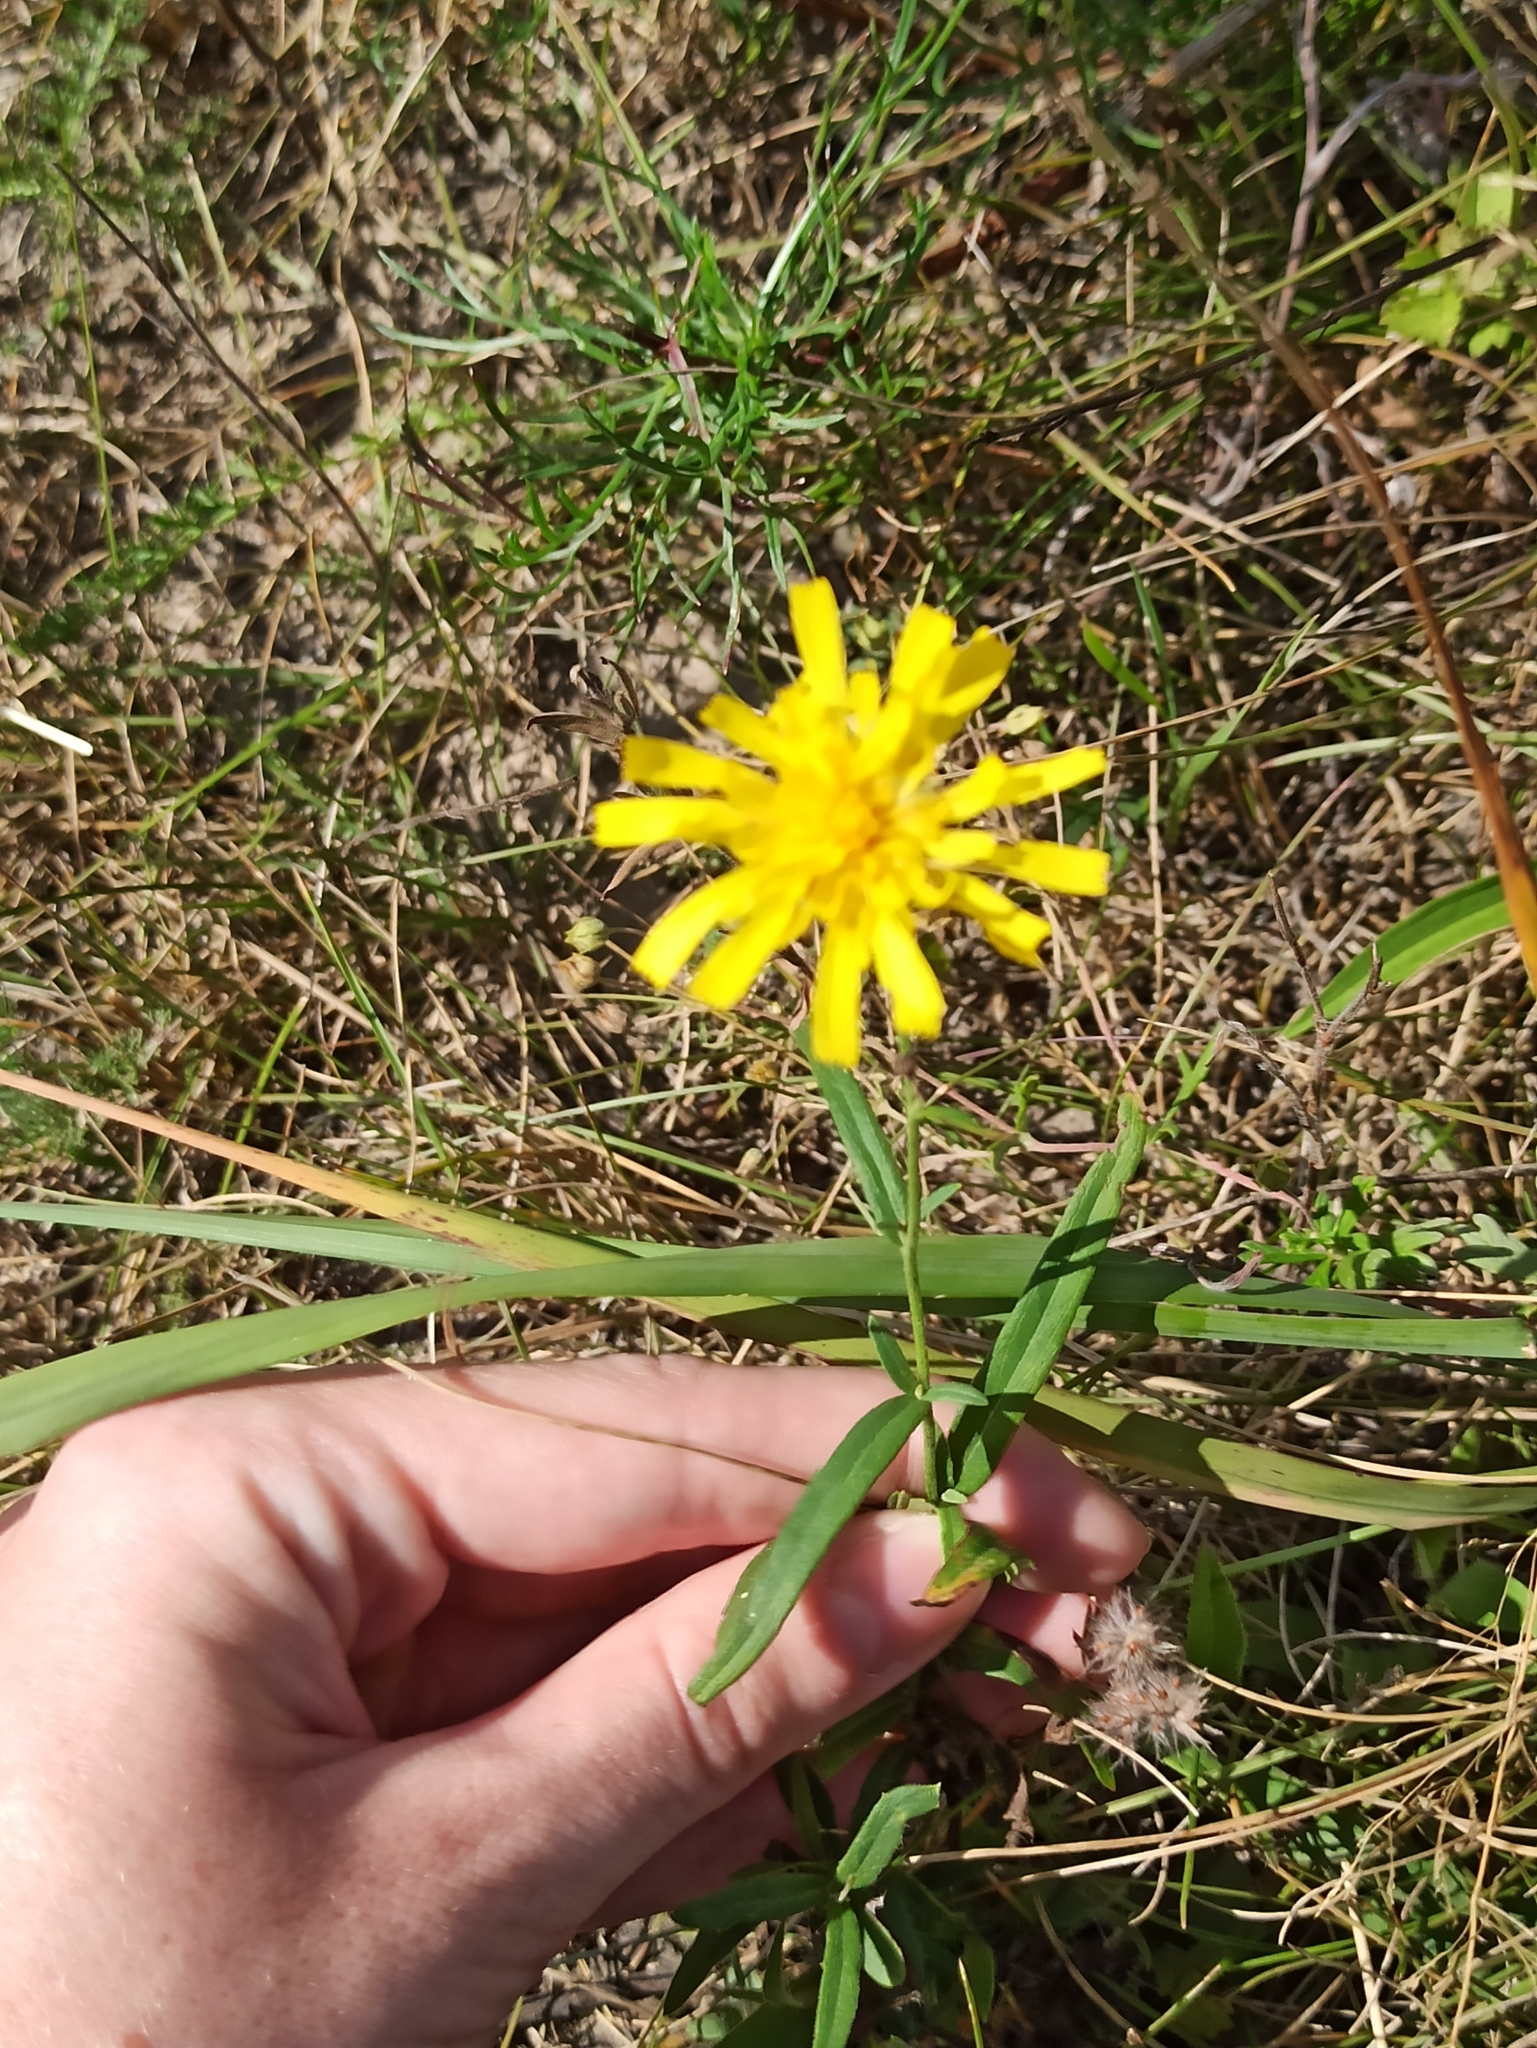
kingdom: Plantae
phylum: Tracheophyta
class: Magnoliopsida
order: Asterales
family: Asteraceae
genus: Hieracium
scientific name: Hieracium umbellatum
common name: Northern hawkweed
